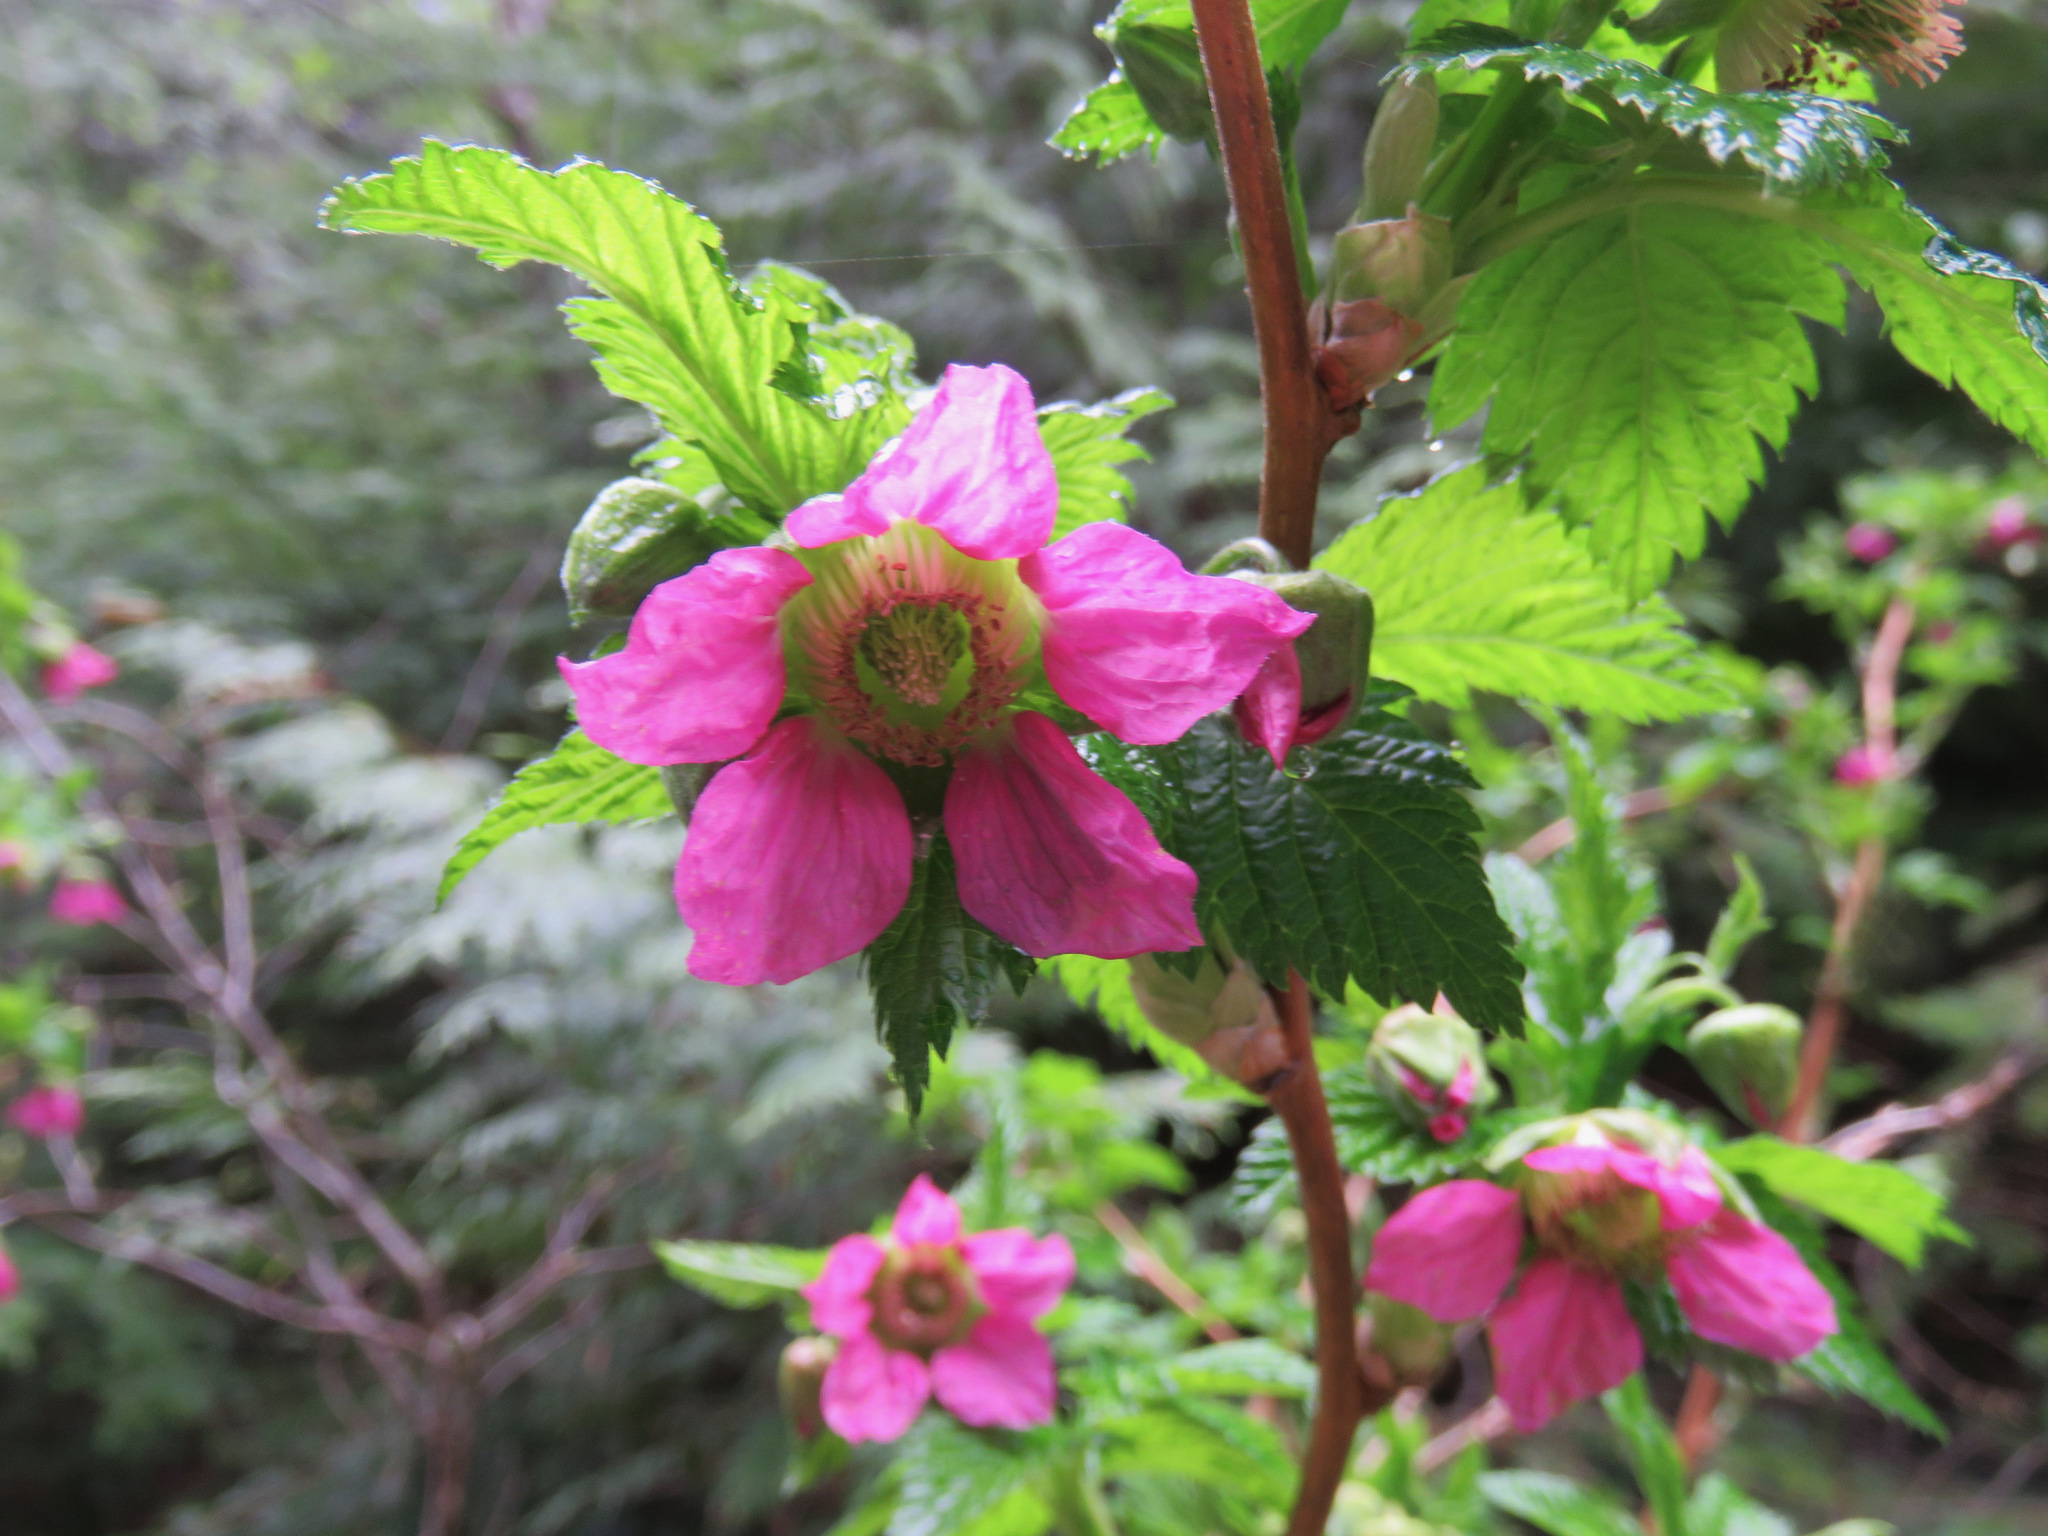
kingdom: Plantae
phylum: Tracheophyta
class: Magnoliopsida
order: Rosales
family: Rosaceae
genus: Rubus
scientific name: Rubus spectabilis
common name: Salmonberry
